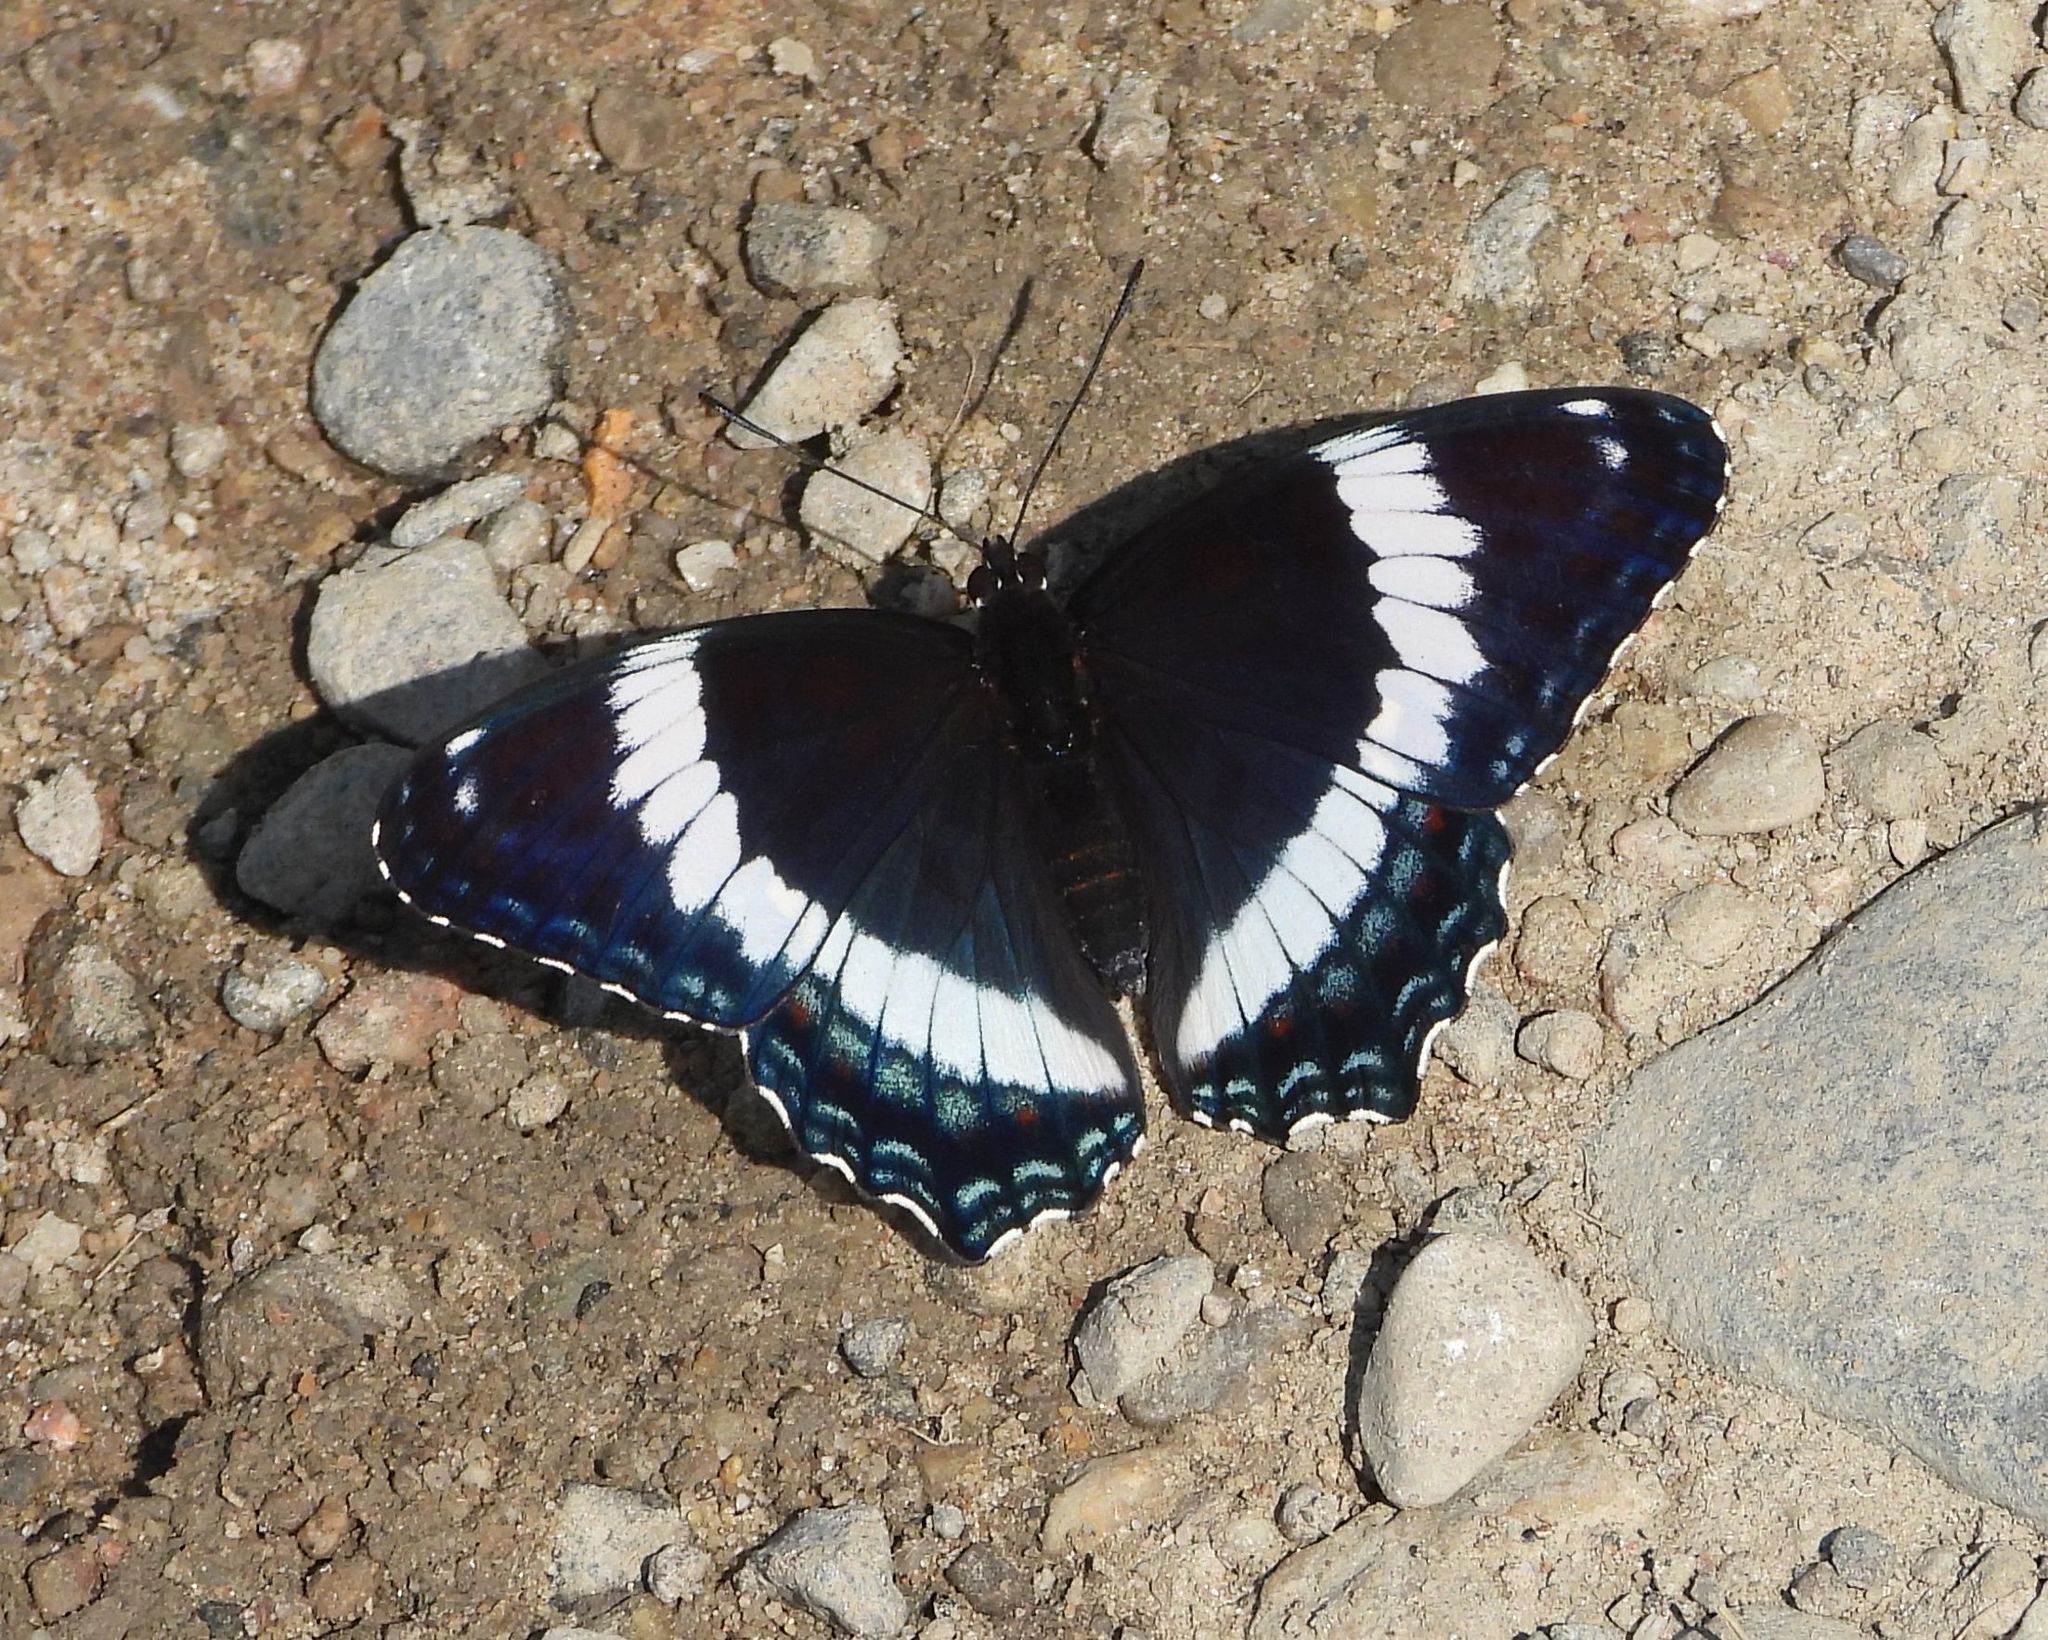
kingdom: Animalia
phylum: Arthropoda
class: Insecta
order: Lepidoptera
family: Nymphalidae
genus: Limenitis
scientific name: Limenitis arthemis
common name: Red-spotted admiral
